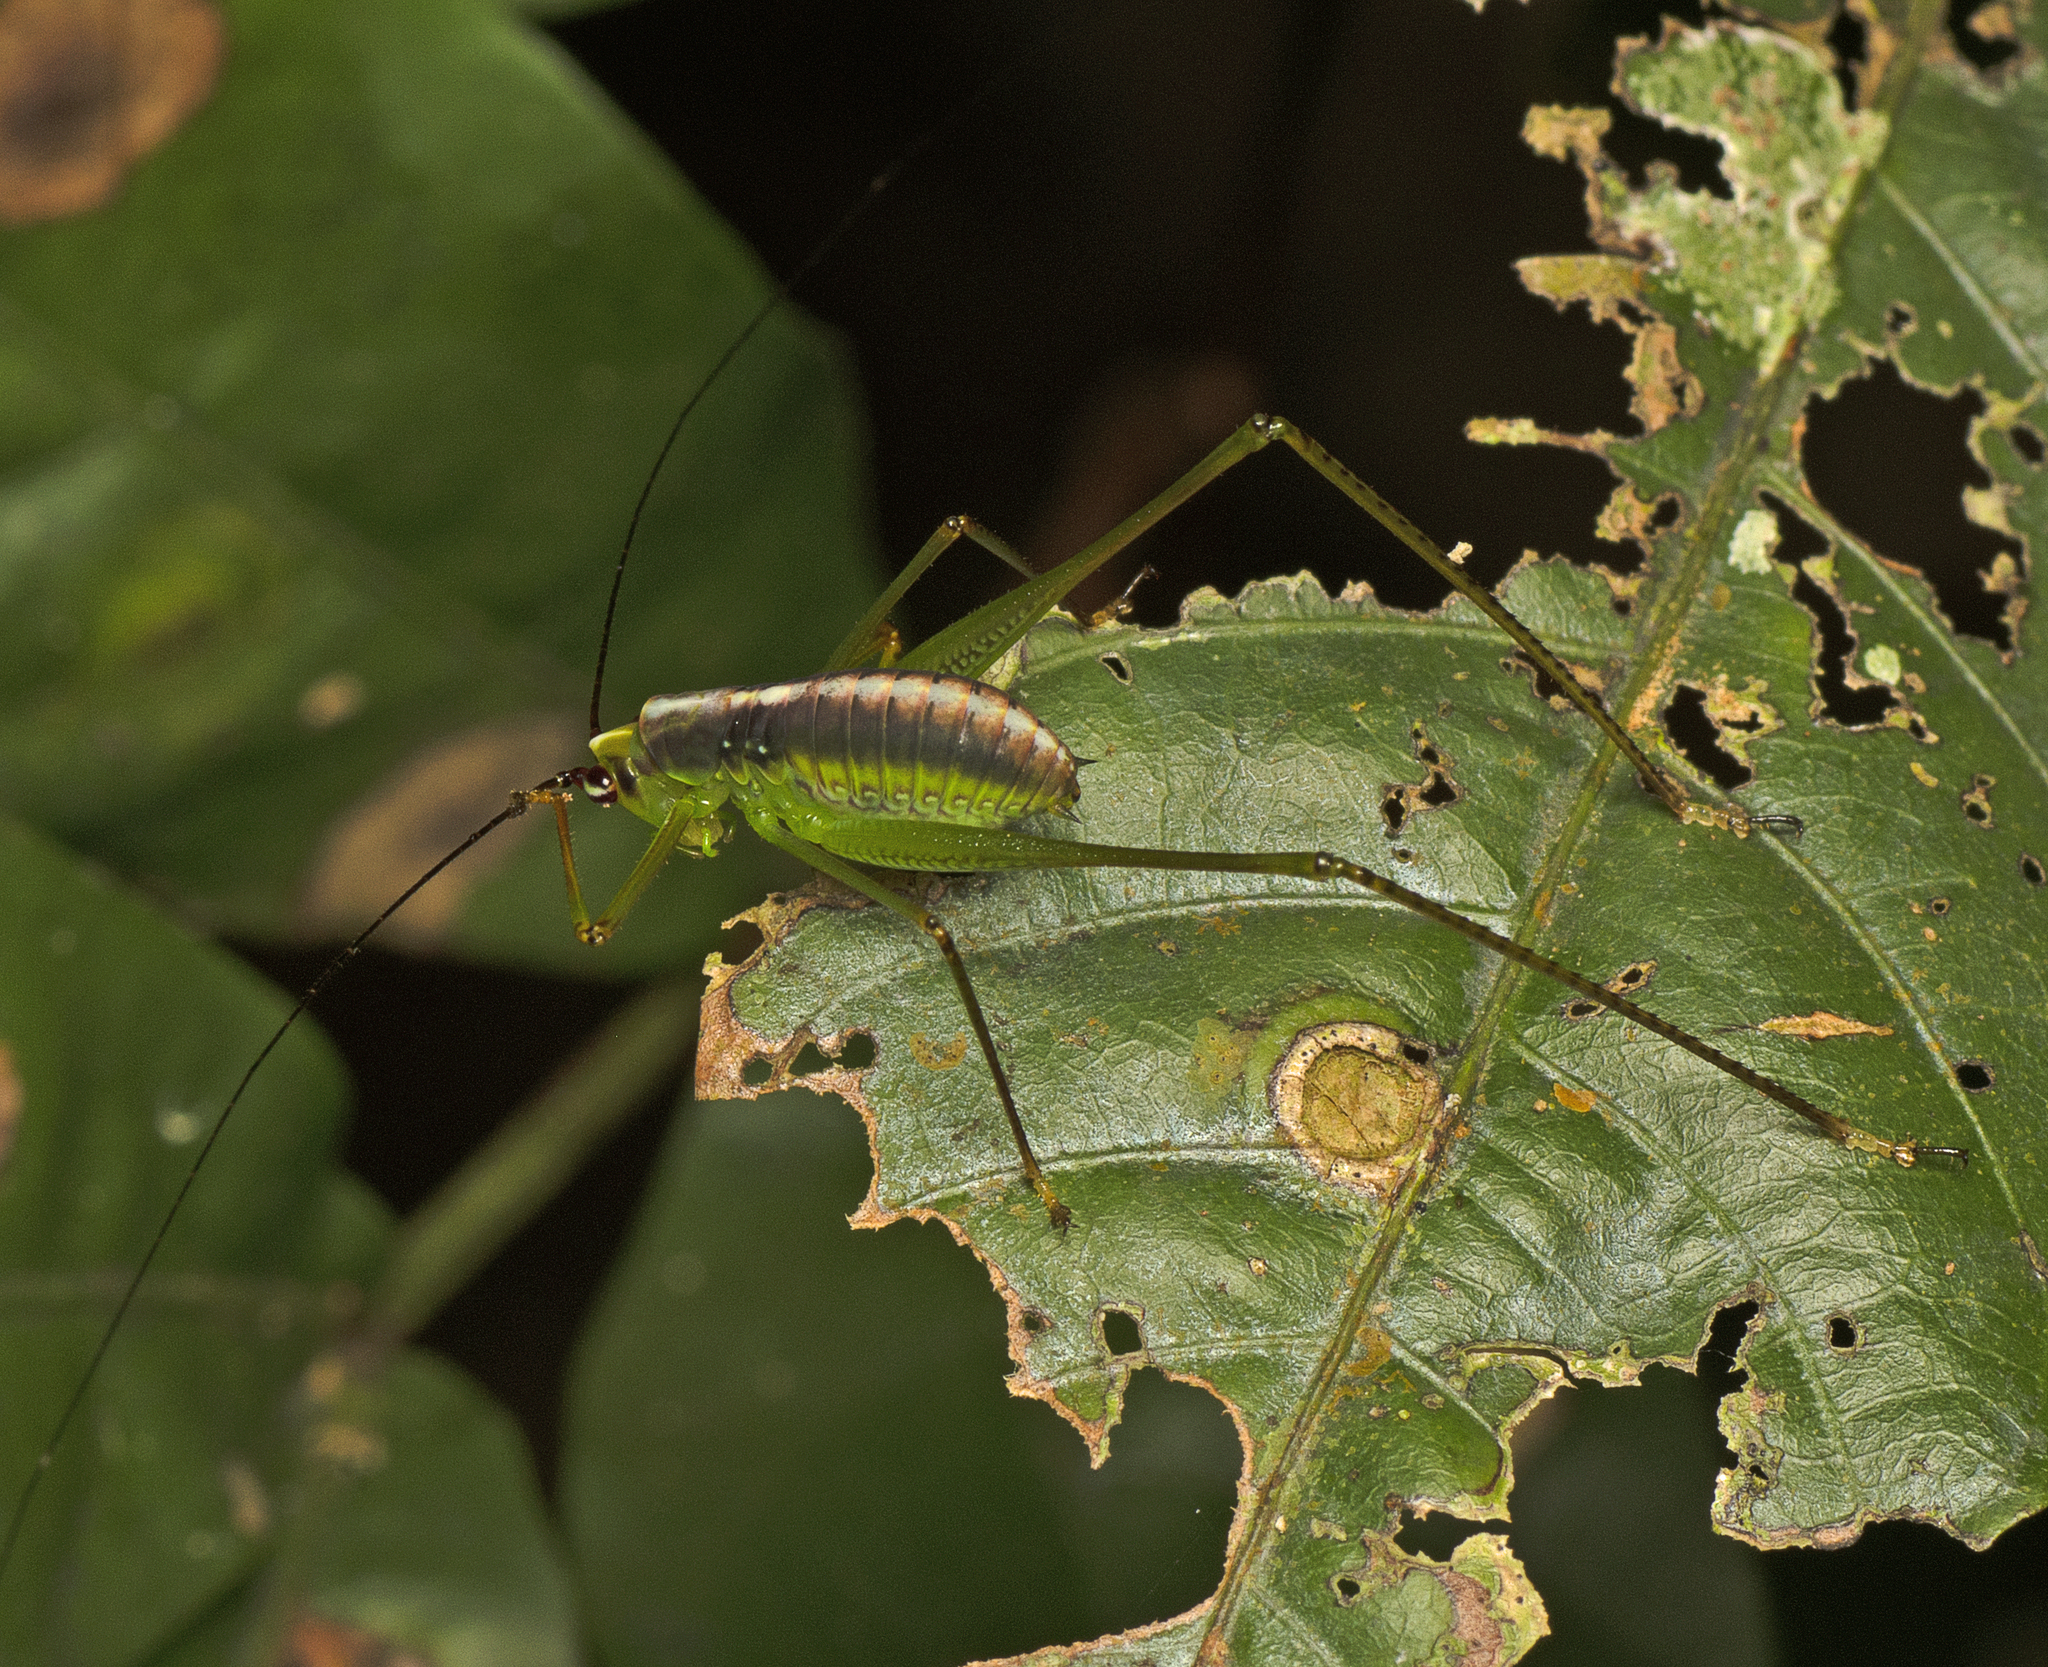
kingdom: Animalia
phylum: Arthropoda
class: Insecta
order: Orthoptera
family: Tettigoniidae
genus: Leucopodoptera
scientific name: Leucopodoptera eumundii
